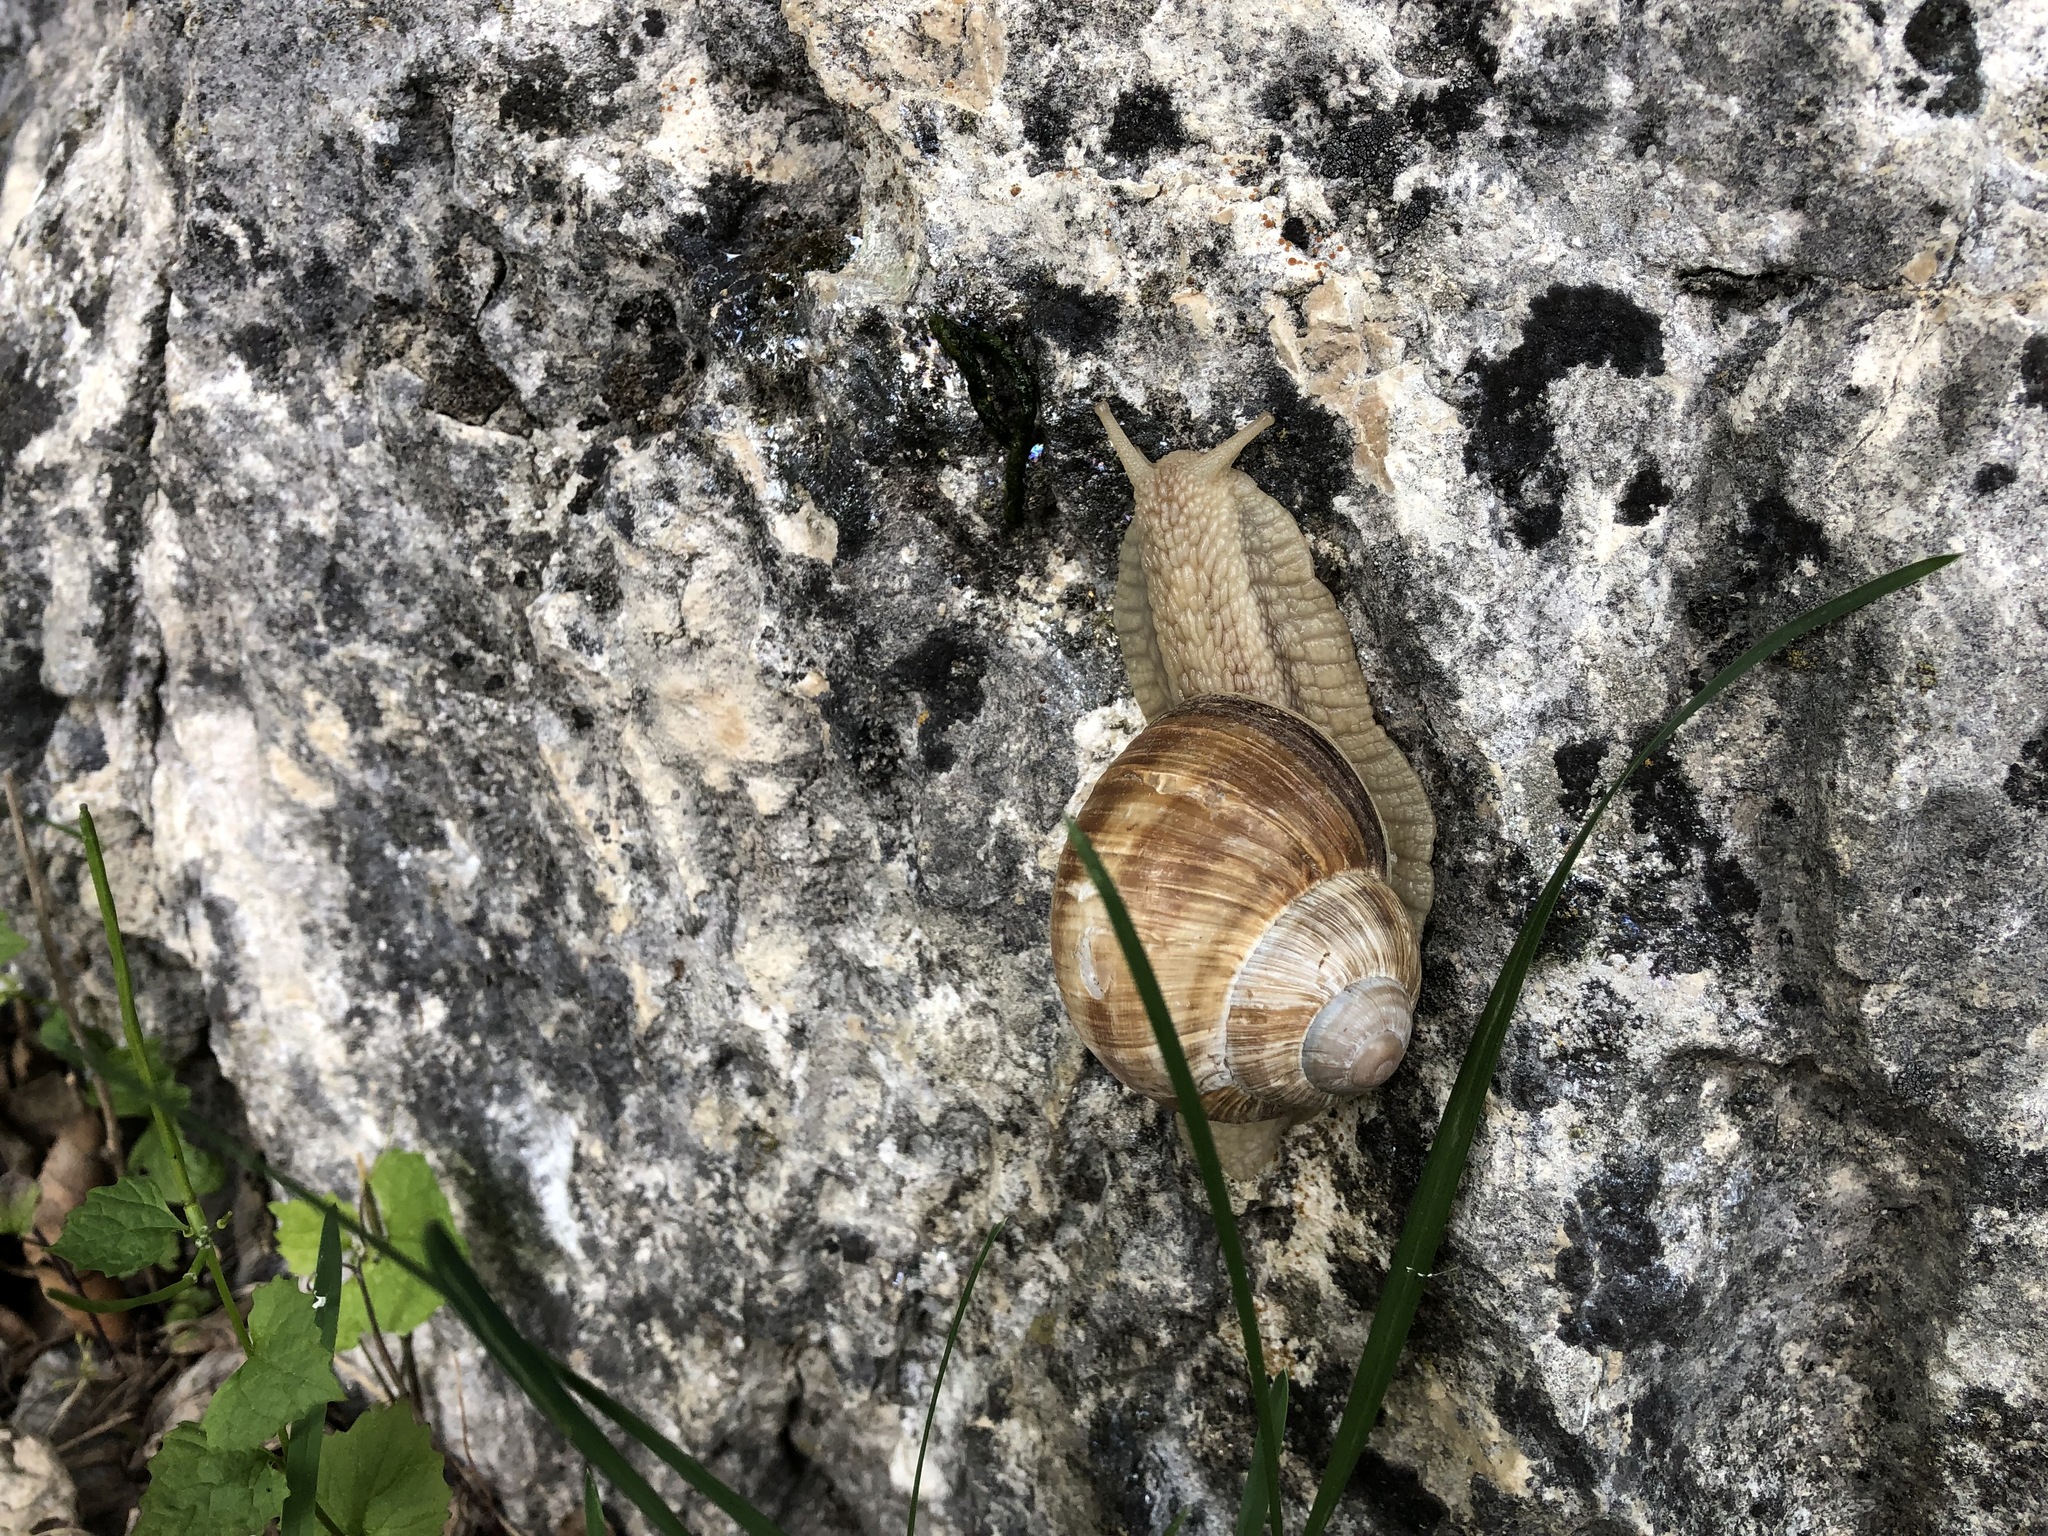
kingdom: Animalia
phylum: Mollusca
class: Gastropoda
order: Stylommatophora
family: Helicidae
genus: Helix
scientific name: Helix pomatia
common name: Roman snail
